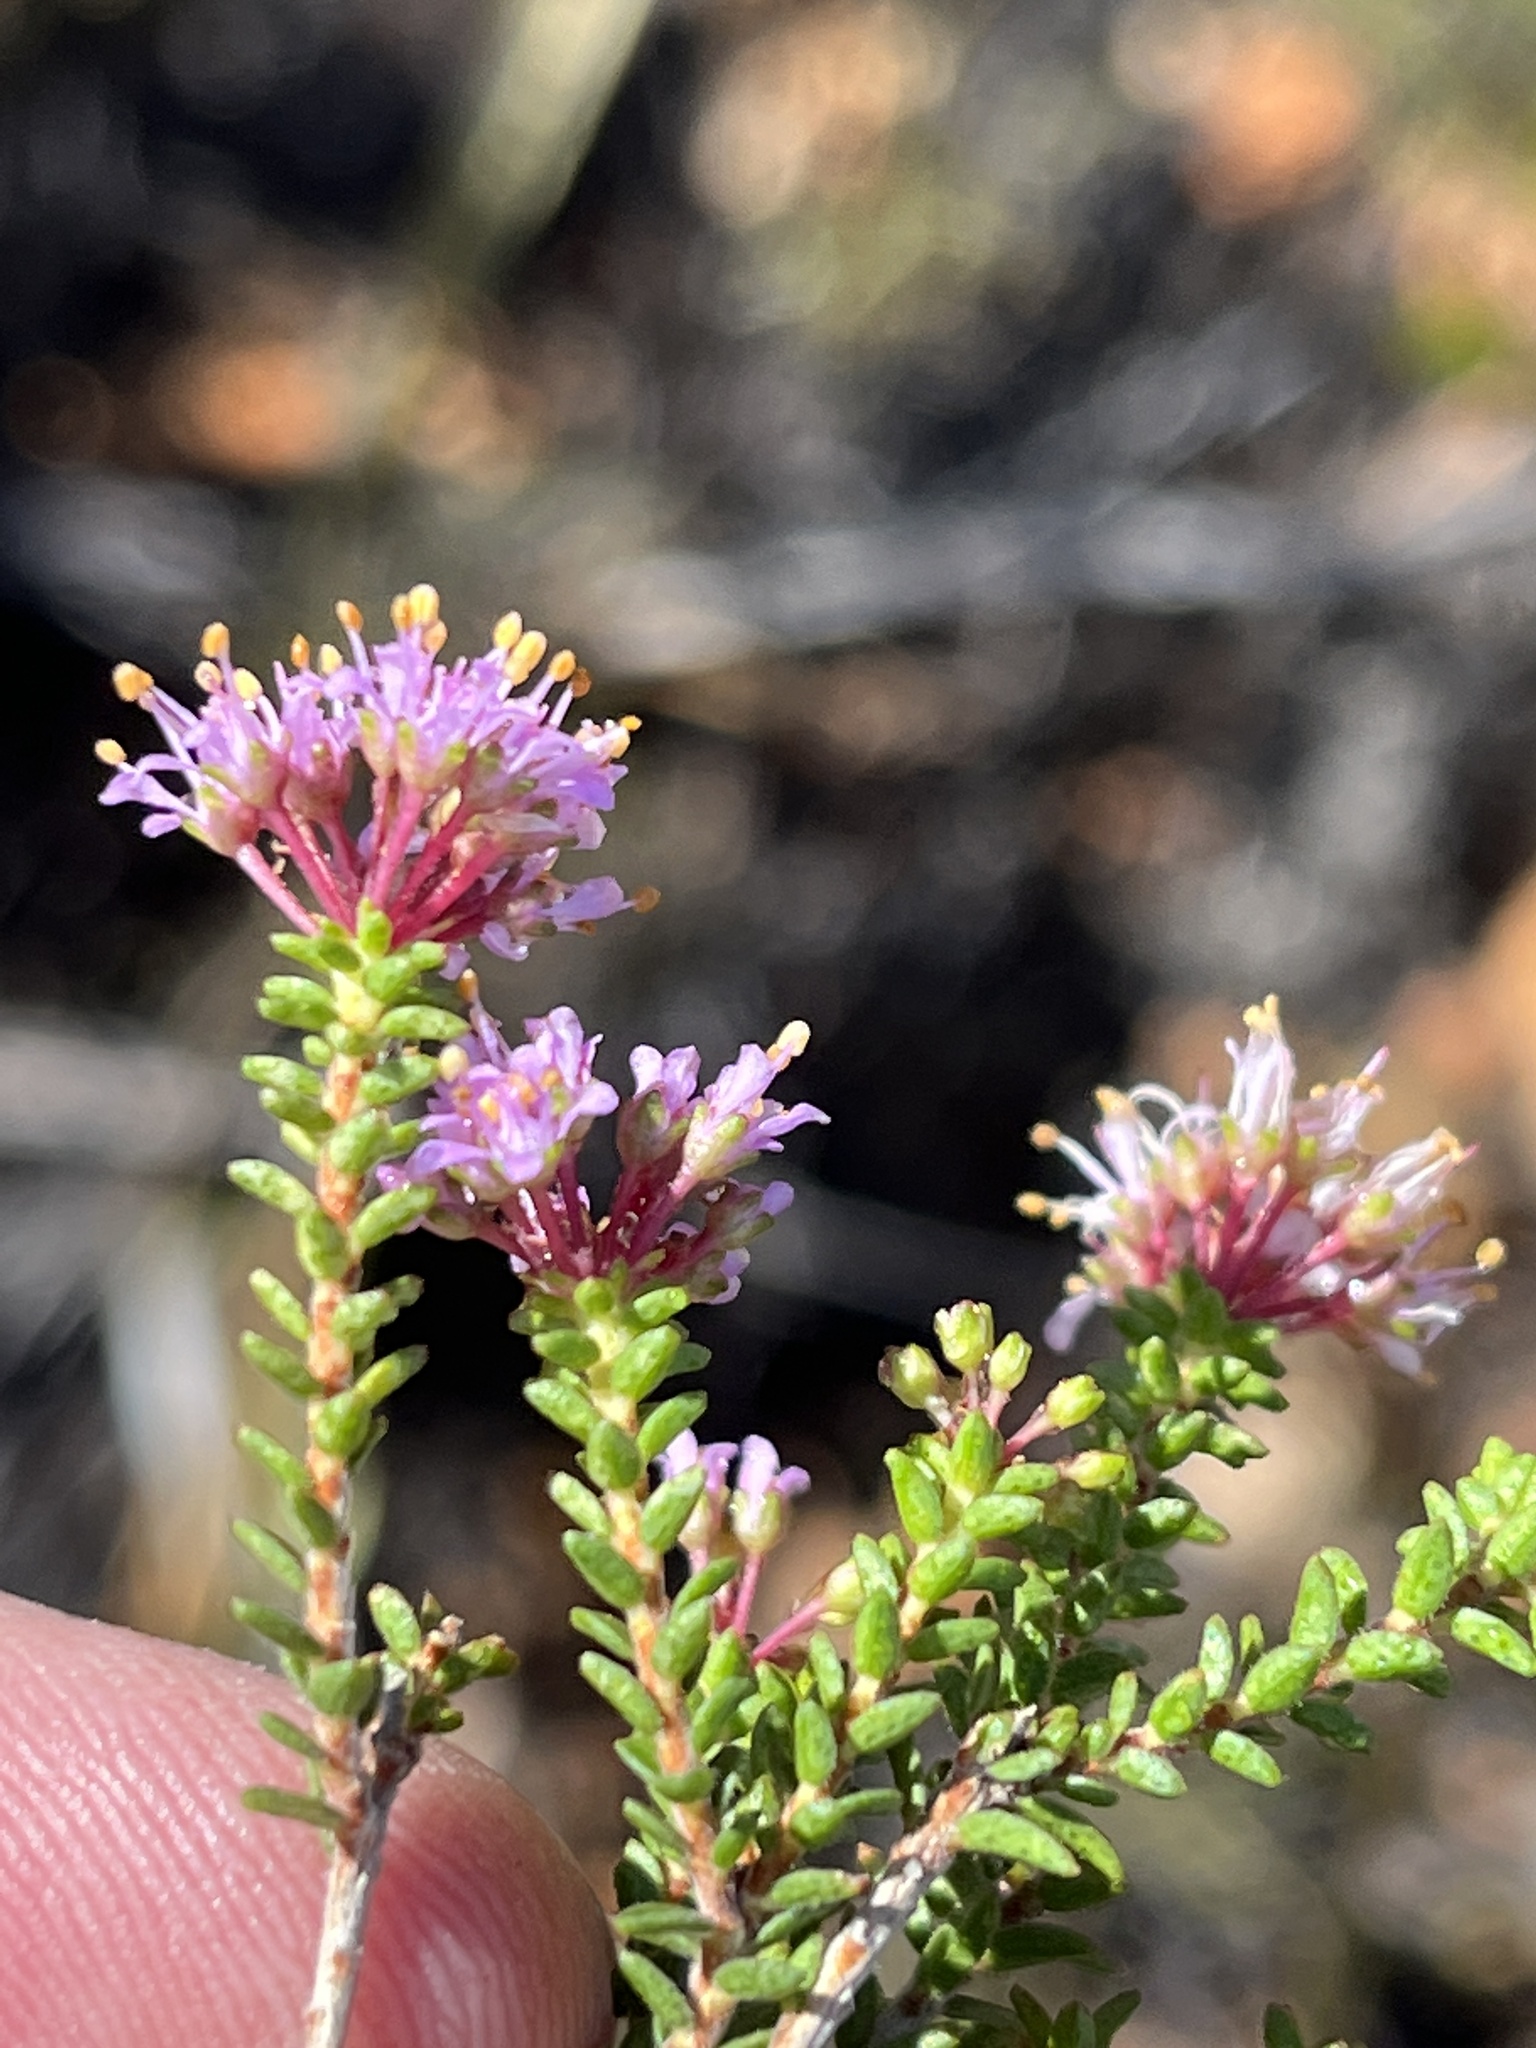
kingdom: Plantae
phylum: Tracheophyta
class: Magnoliopsida
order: Sapindales
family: Rutaceae
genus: Agathosma
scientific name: Agathosma capensis
